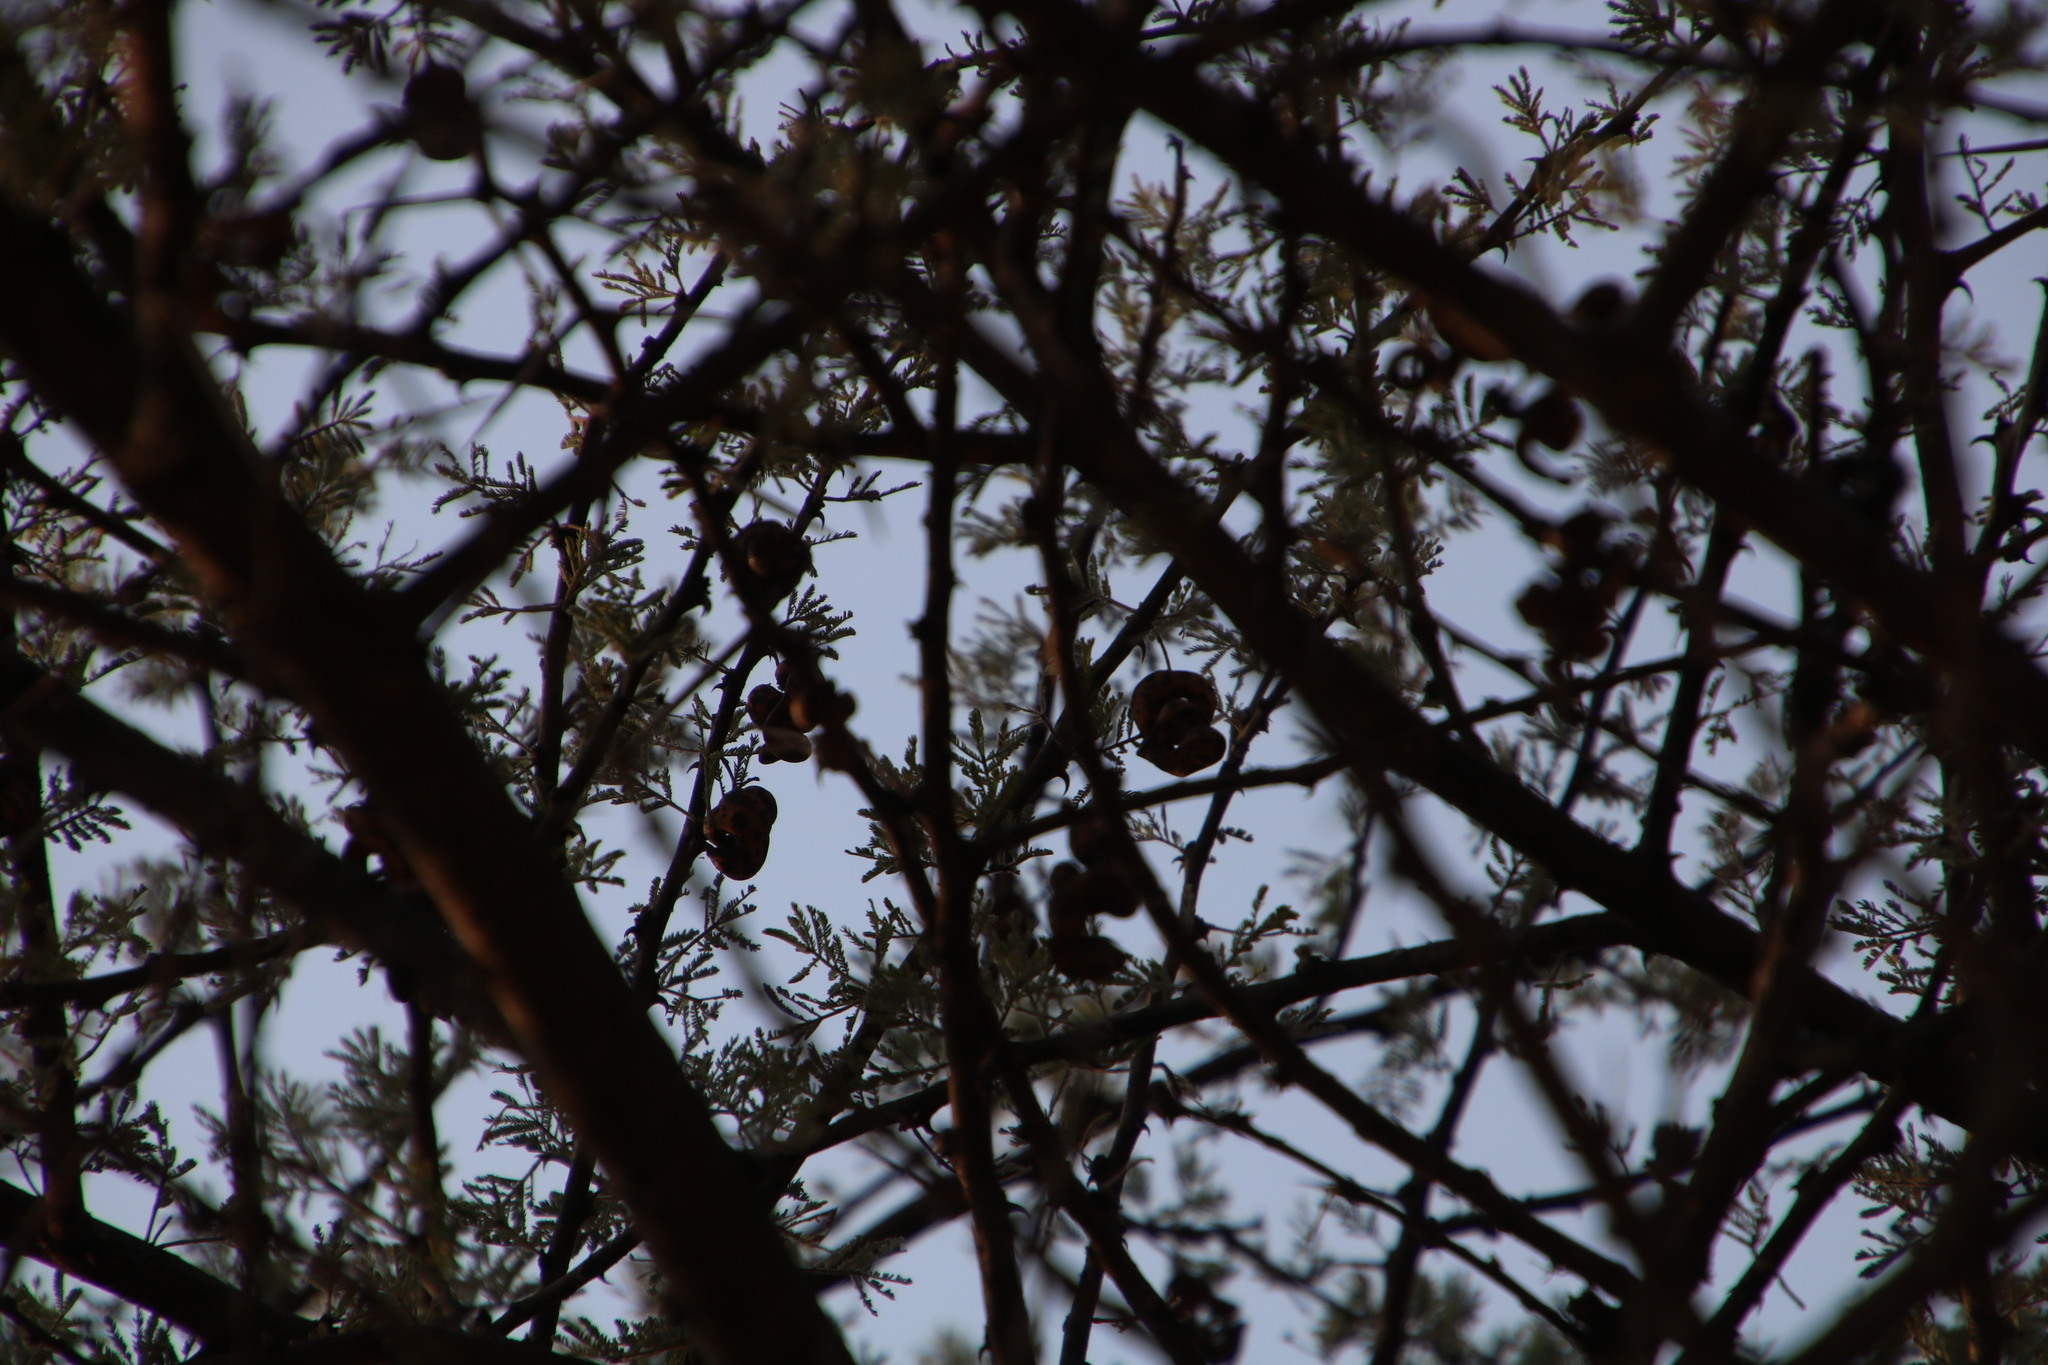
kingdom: Plantae
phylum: Tracheophyta
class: Magnoliopsida
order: Fabales
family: Fabaceae
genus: Vachellia
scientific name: Vachellia tortilis
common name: Umbrella thorn acacia
